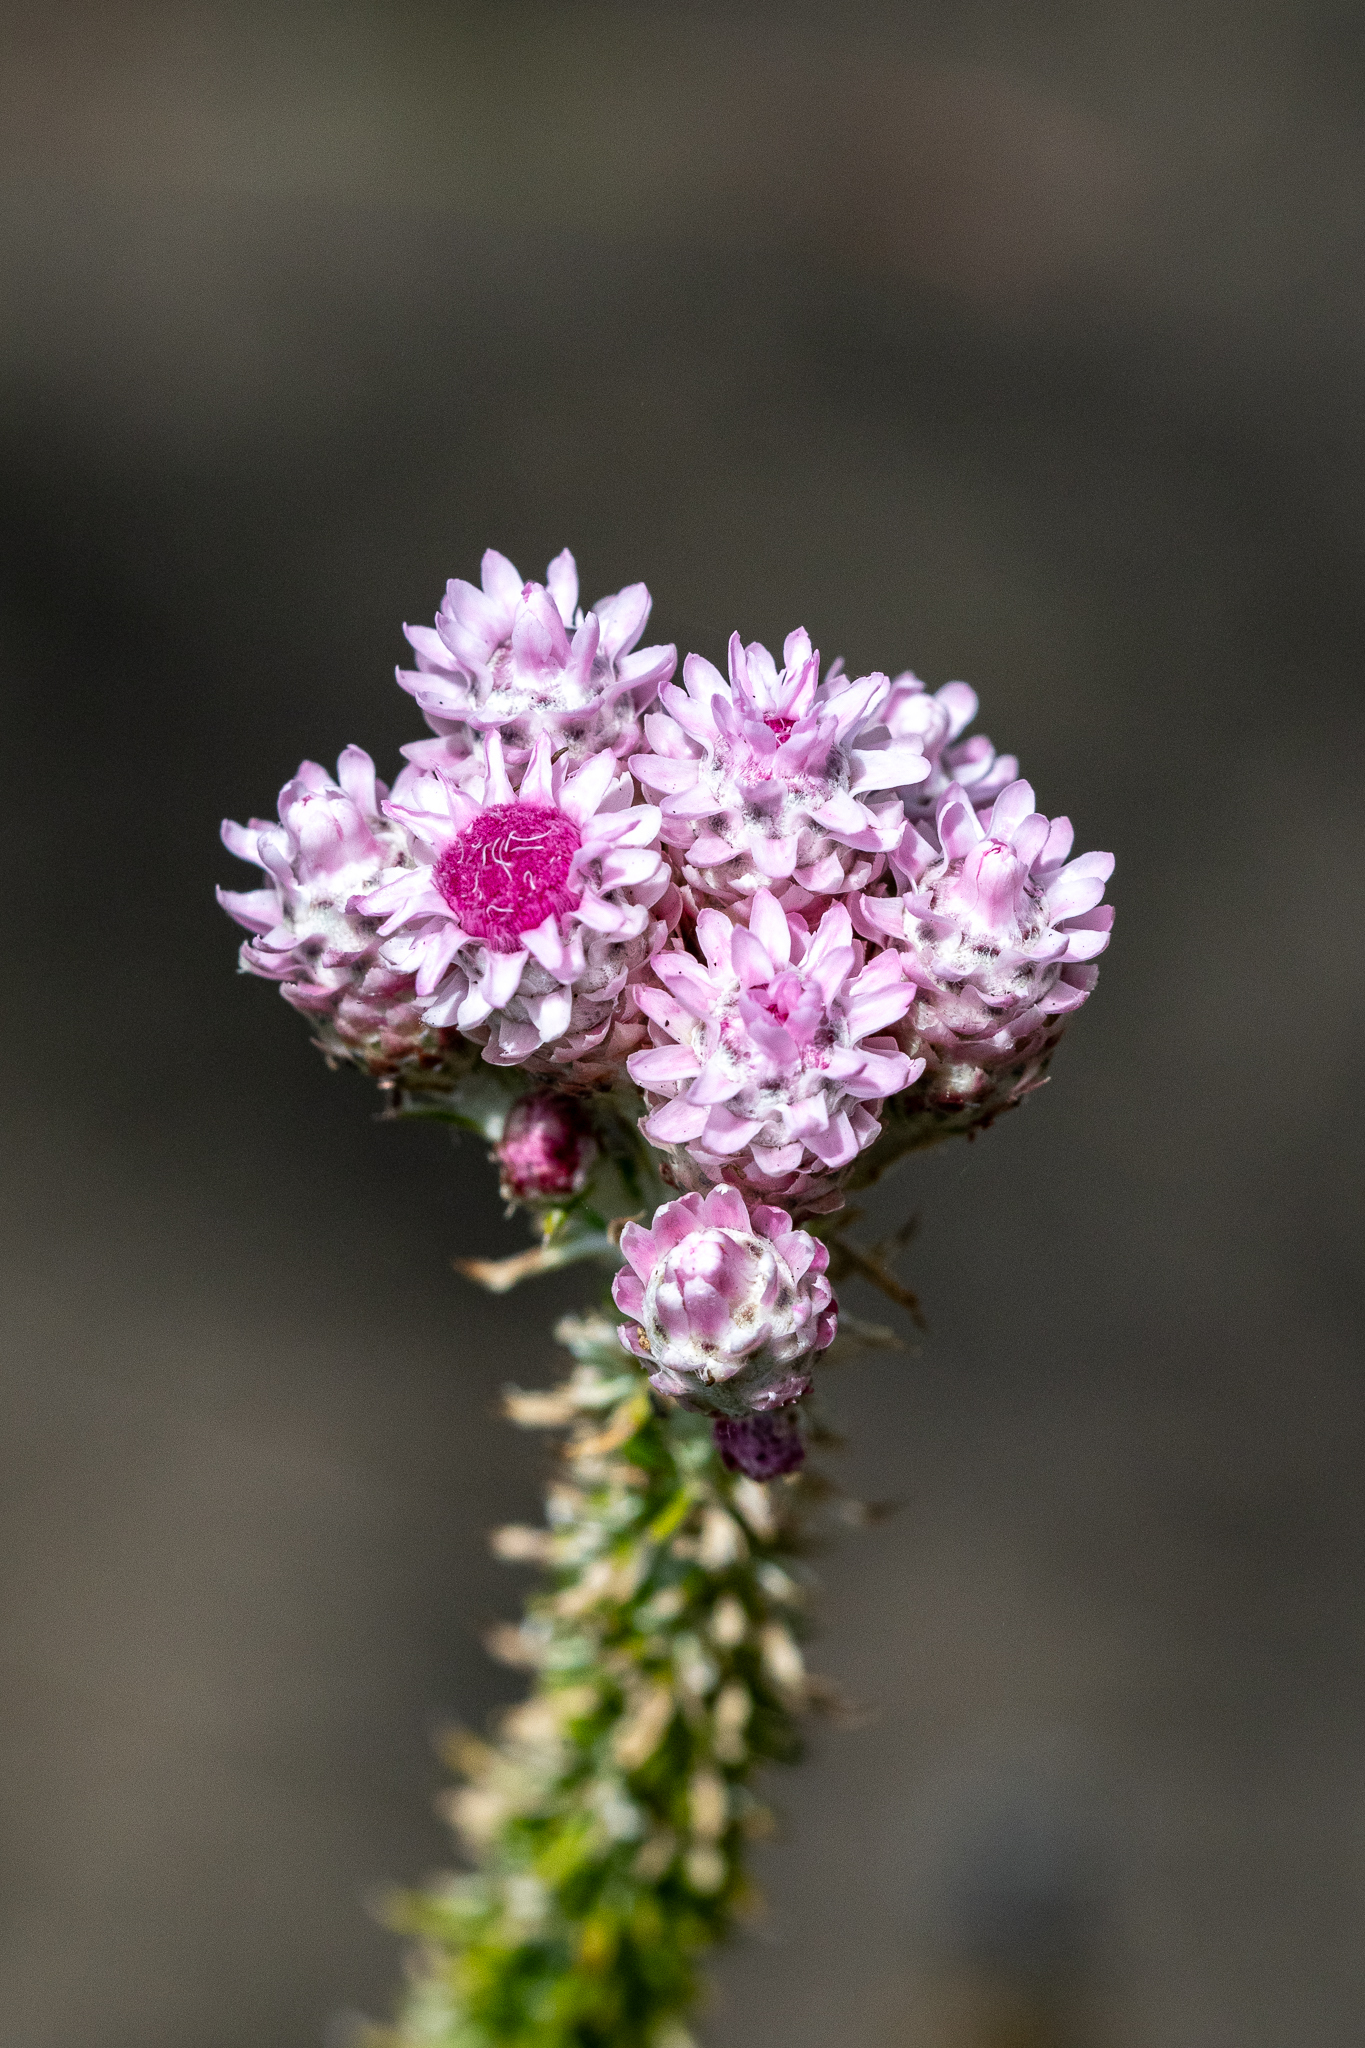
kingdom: Plantae
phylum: Tracheophyta
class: Magnoliopsida
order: Asterales
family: Asteraceae
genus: Lachnospermum
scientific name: Lachnospermum umbellatum
